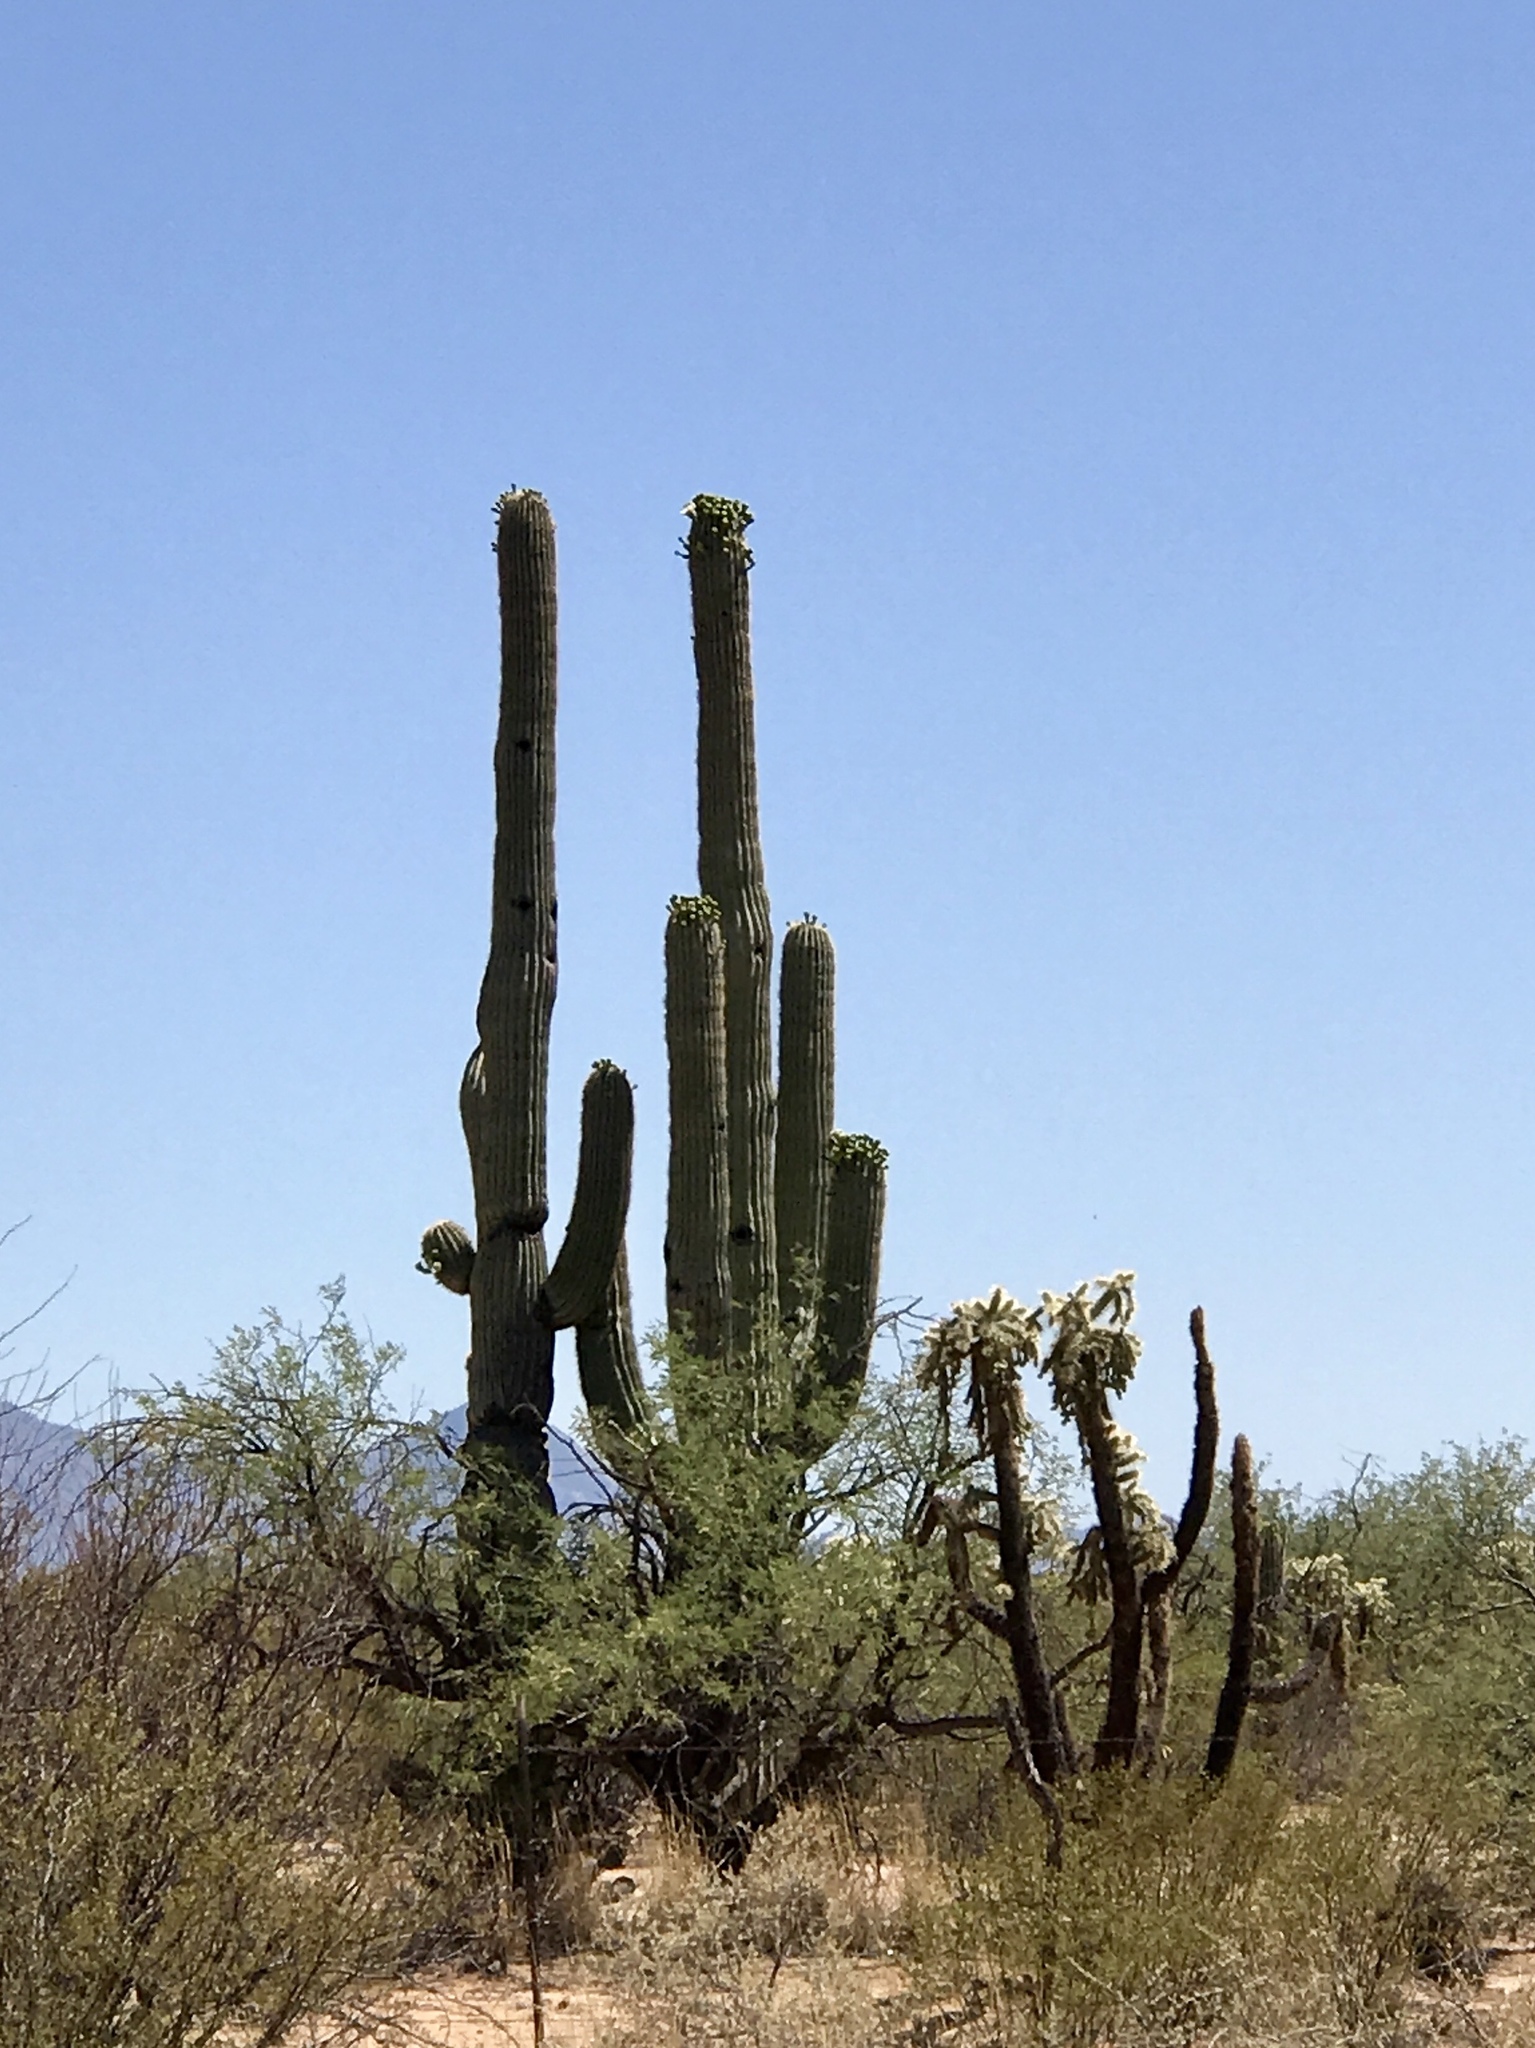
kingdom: Plantae
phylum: Tracheophyta
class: Magnoliopsida
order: Caryophyllales
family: Cactaceae
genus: Carnegiea
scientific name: Carnegiea gigantea
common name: Saguaro
